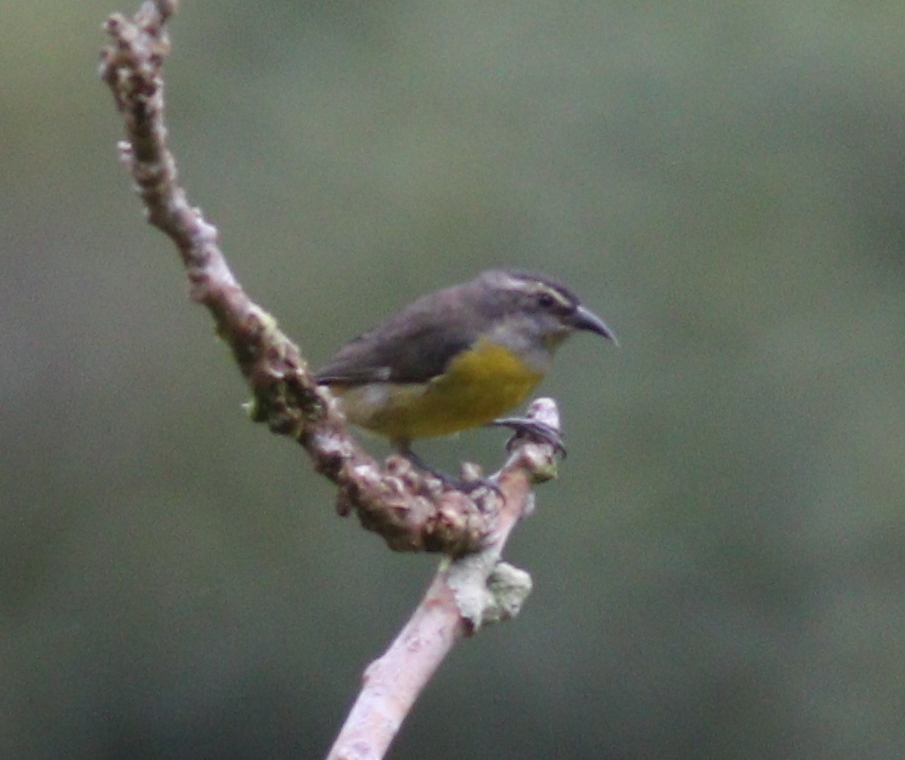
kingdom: Animalia
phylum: Chordata
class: Aves
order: Passeriformes
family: Thraupidae
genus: Coereba
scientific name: Coereba flaveola
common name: Bananaquit
